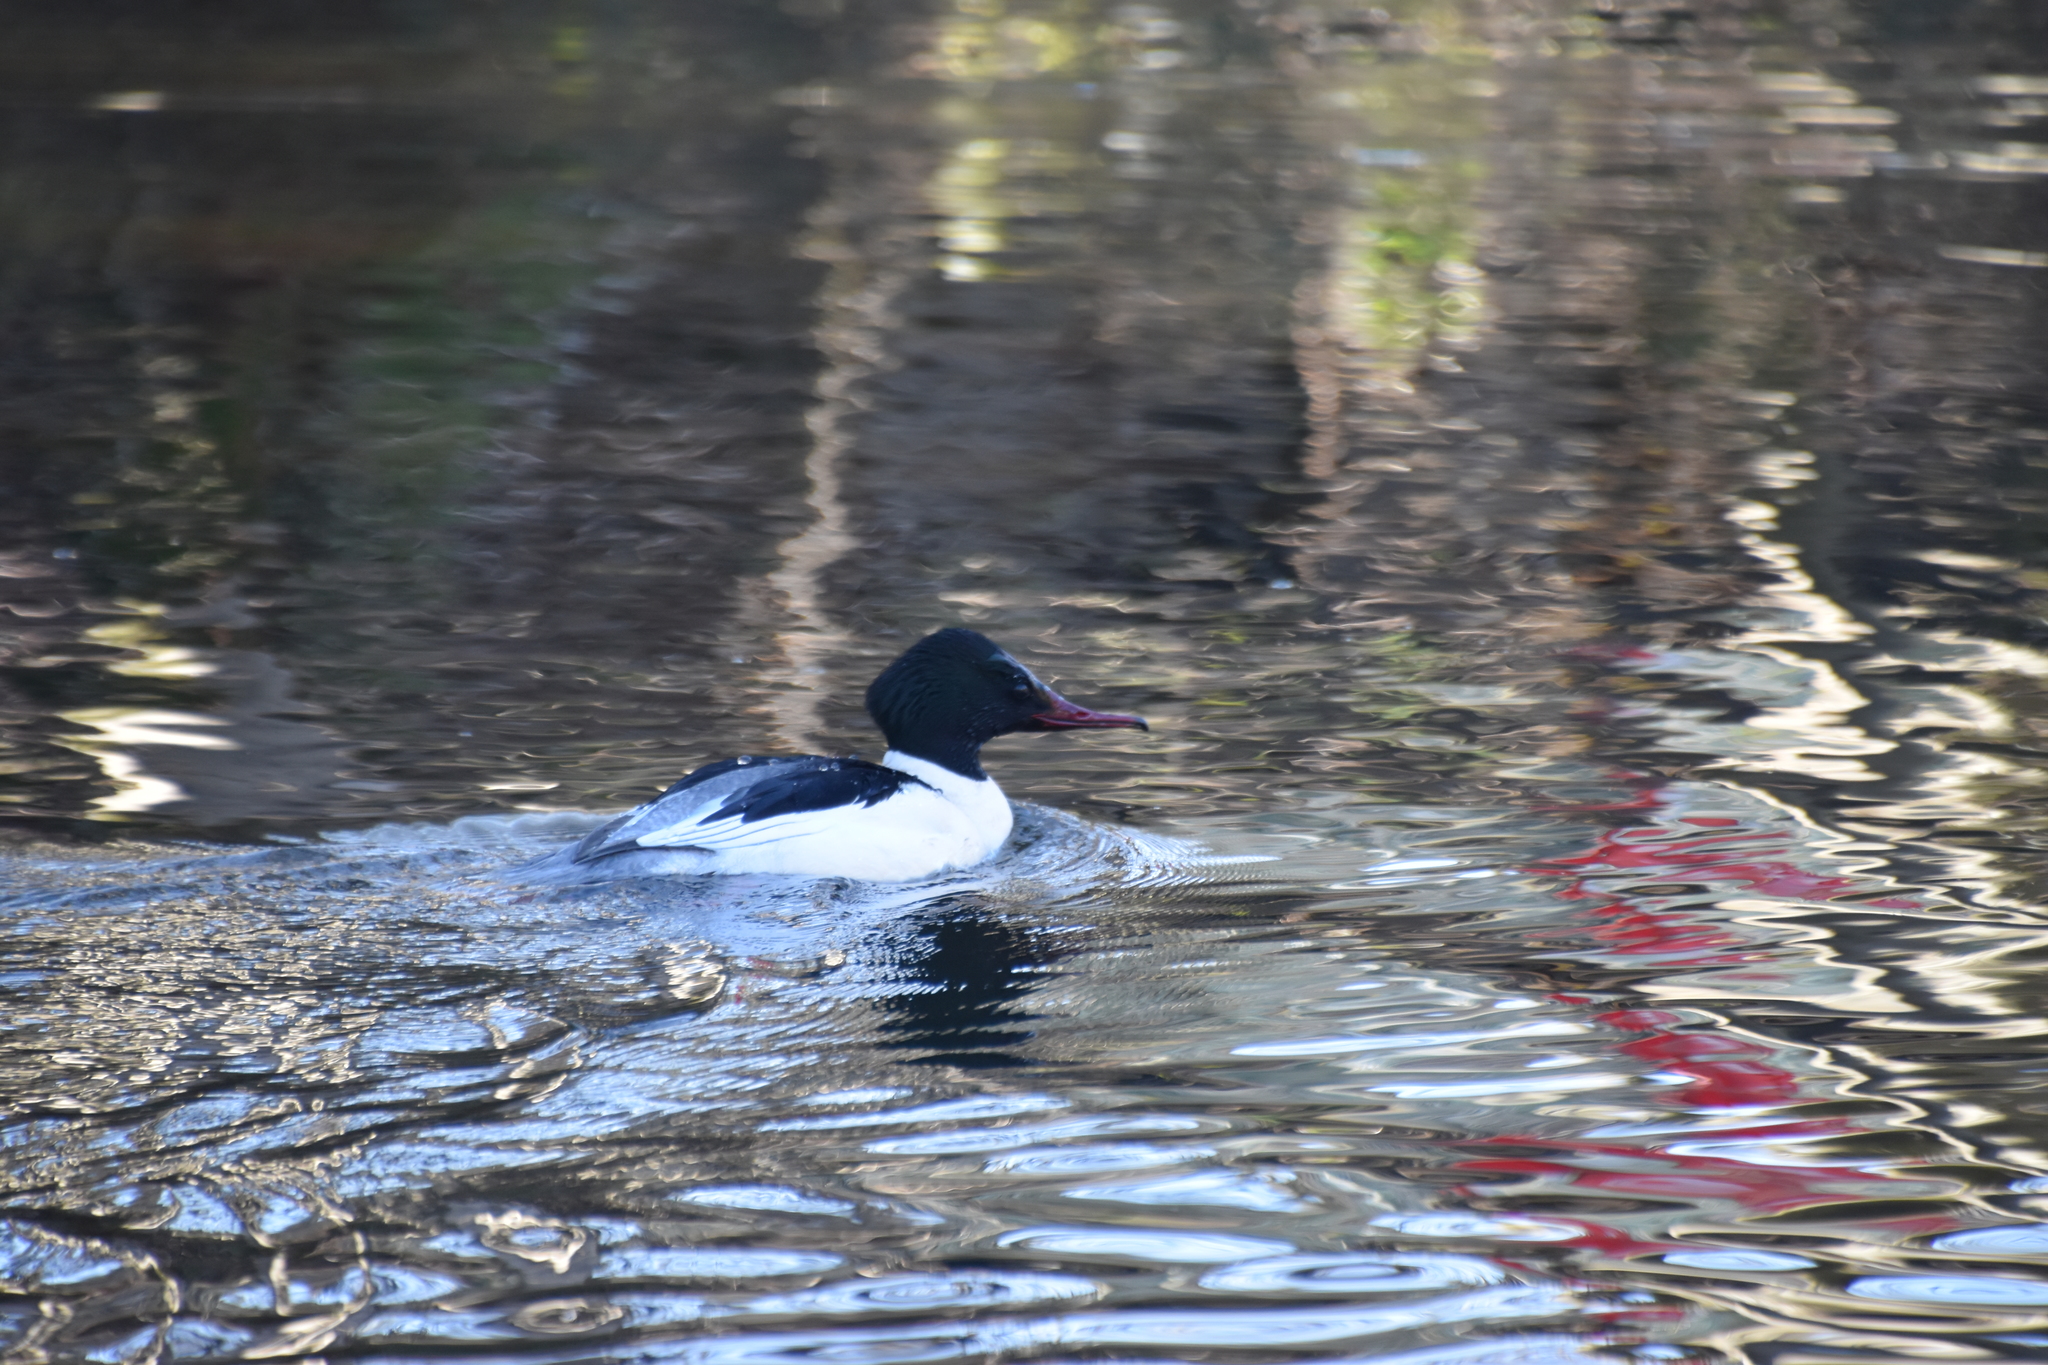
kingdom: Animalia
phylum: Chordata
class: Aves
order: Anseriformes
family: Anatidae
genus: Mergus
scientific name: Mergus merganser
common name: Common merganser
